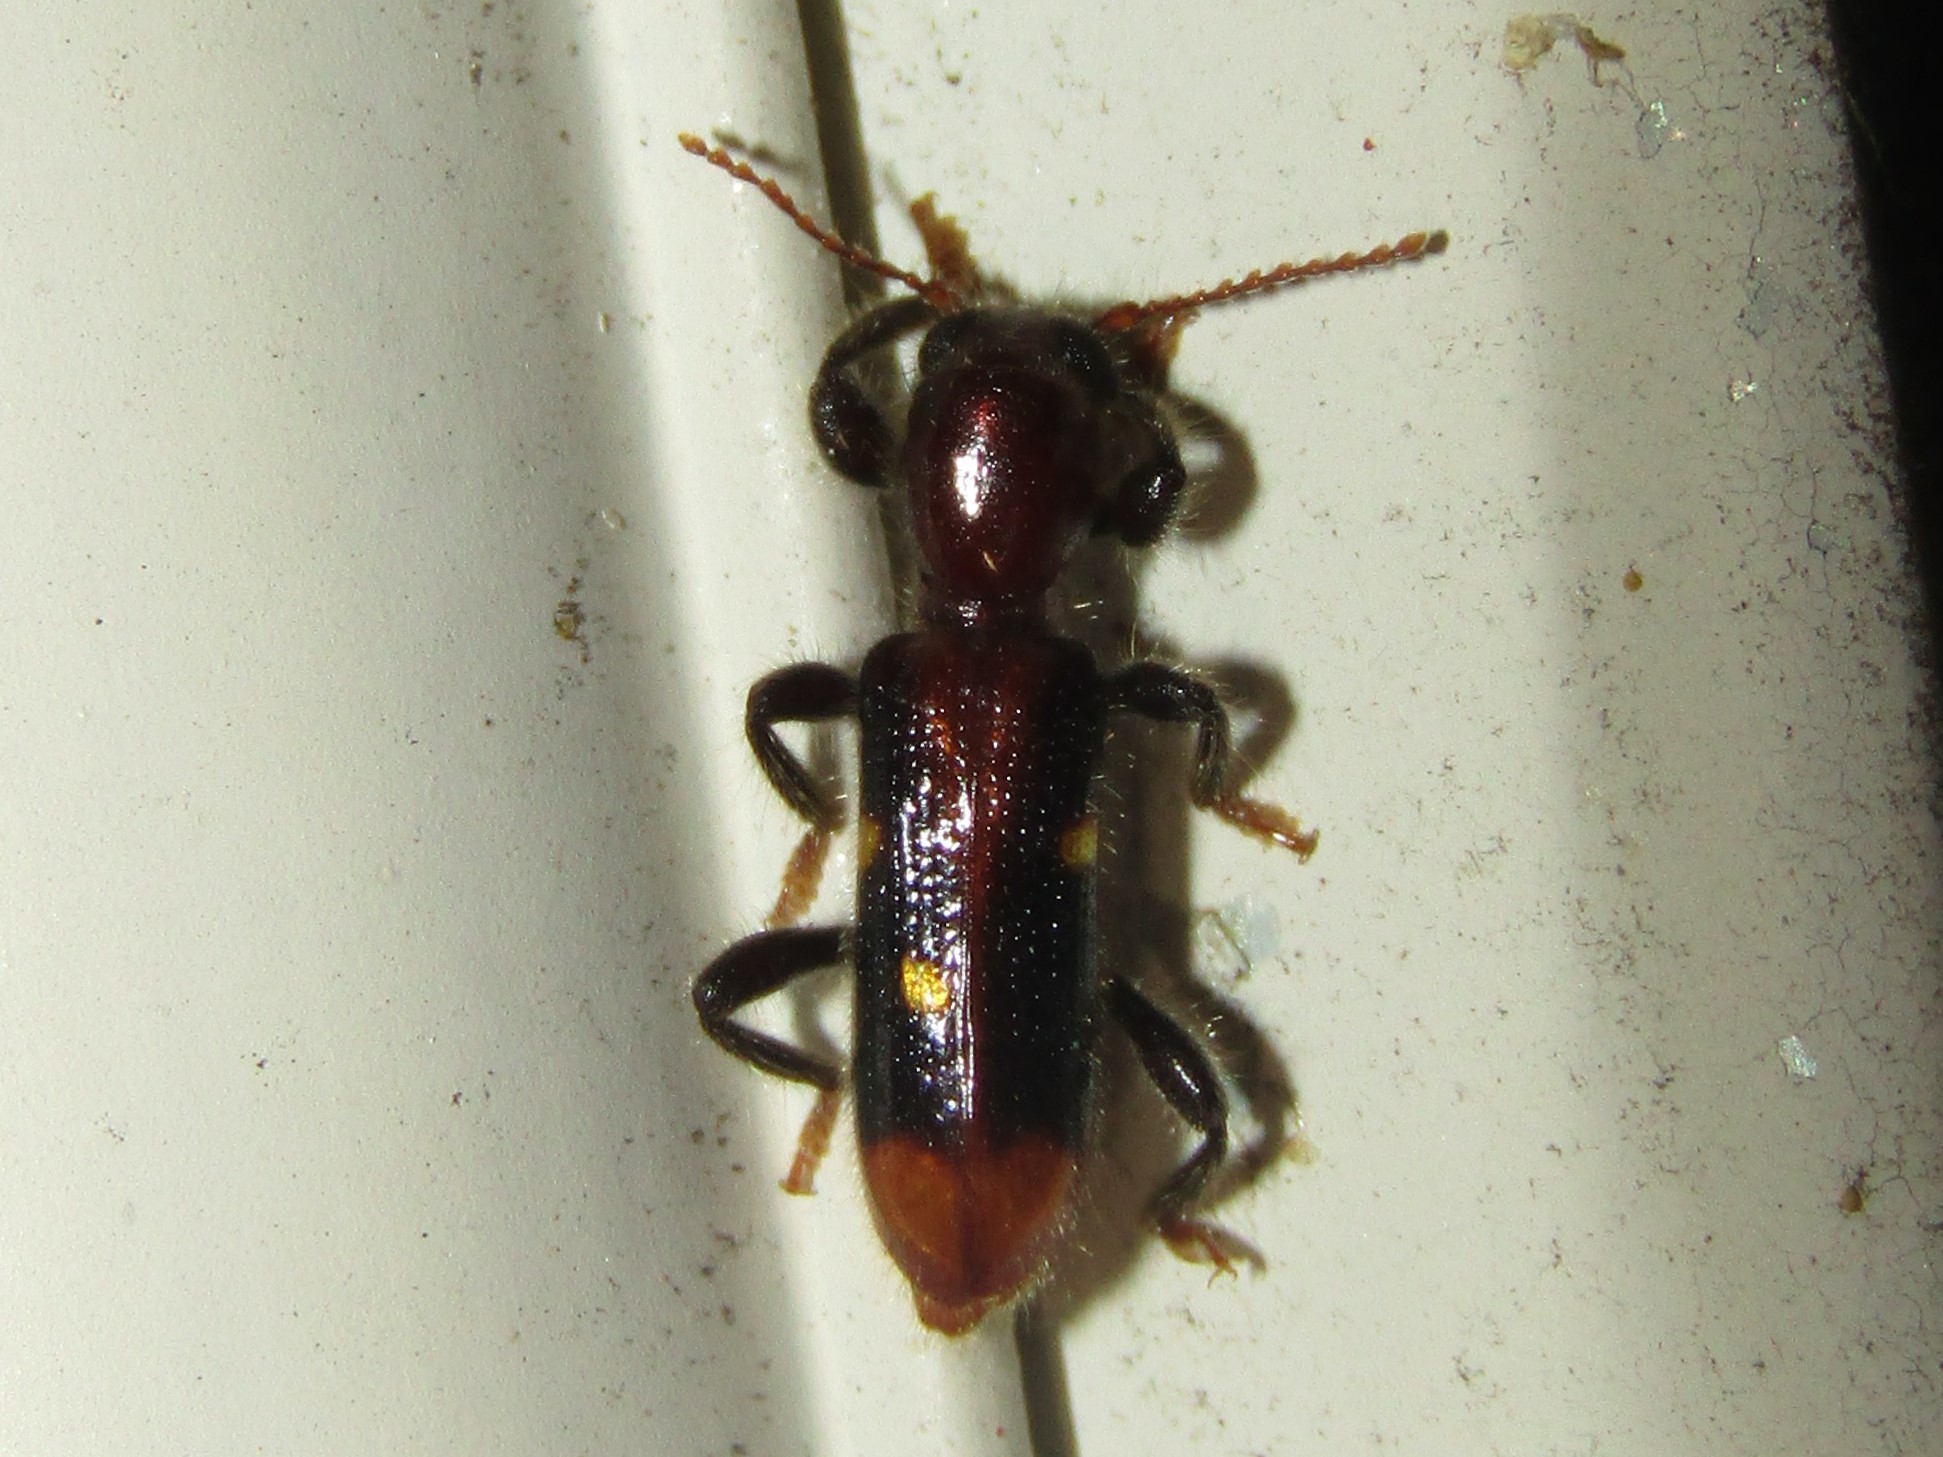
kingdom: Animalia
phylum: Arthropoda
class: Insecta
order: Coleoptera
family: Cleridae
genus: Priocera
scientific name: Priocera castanea
